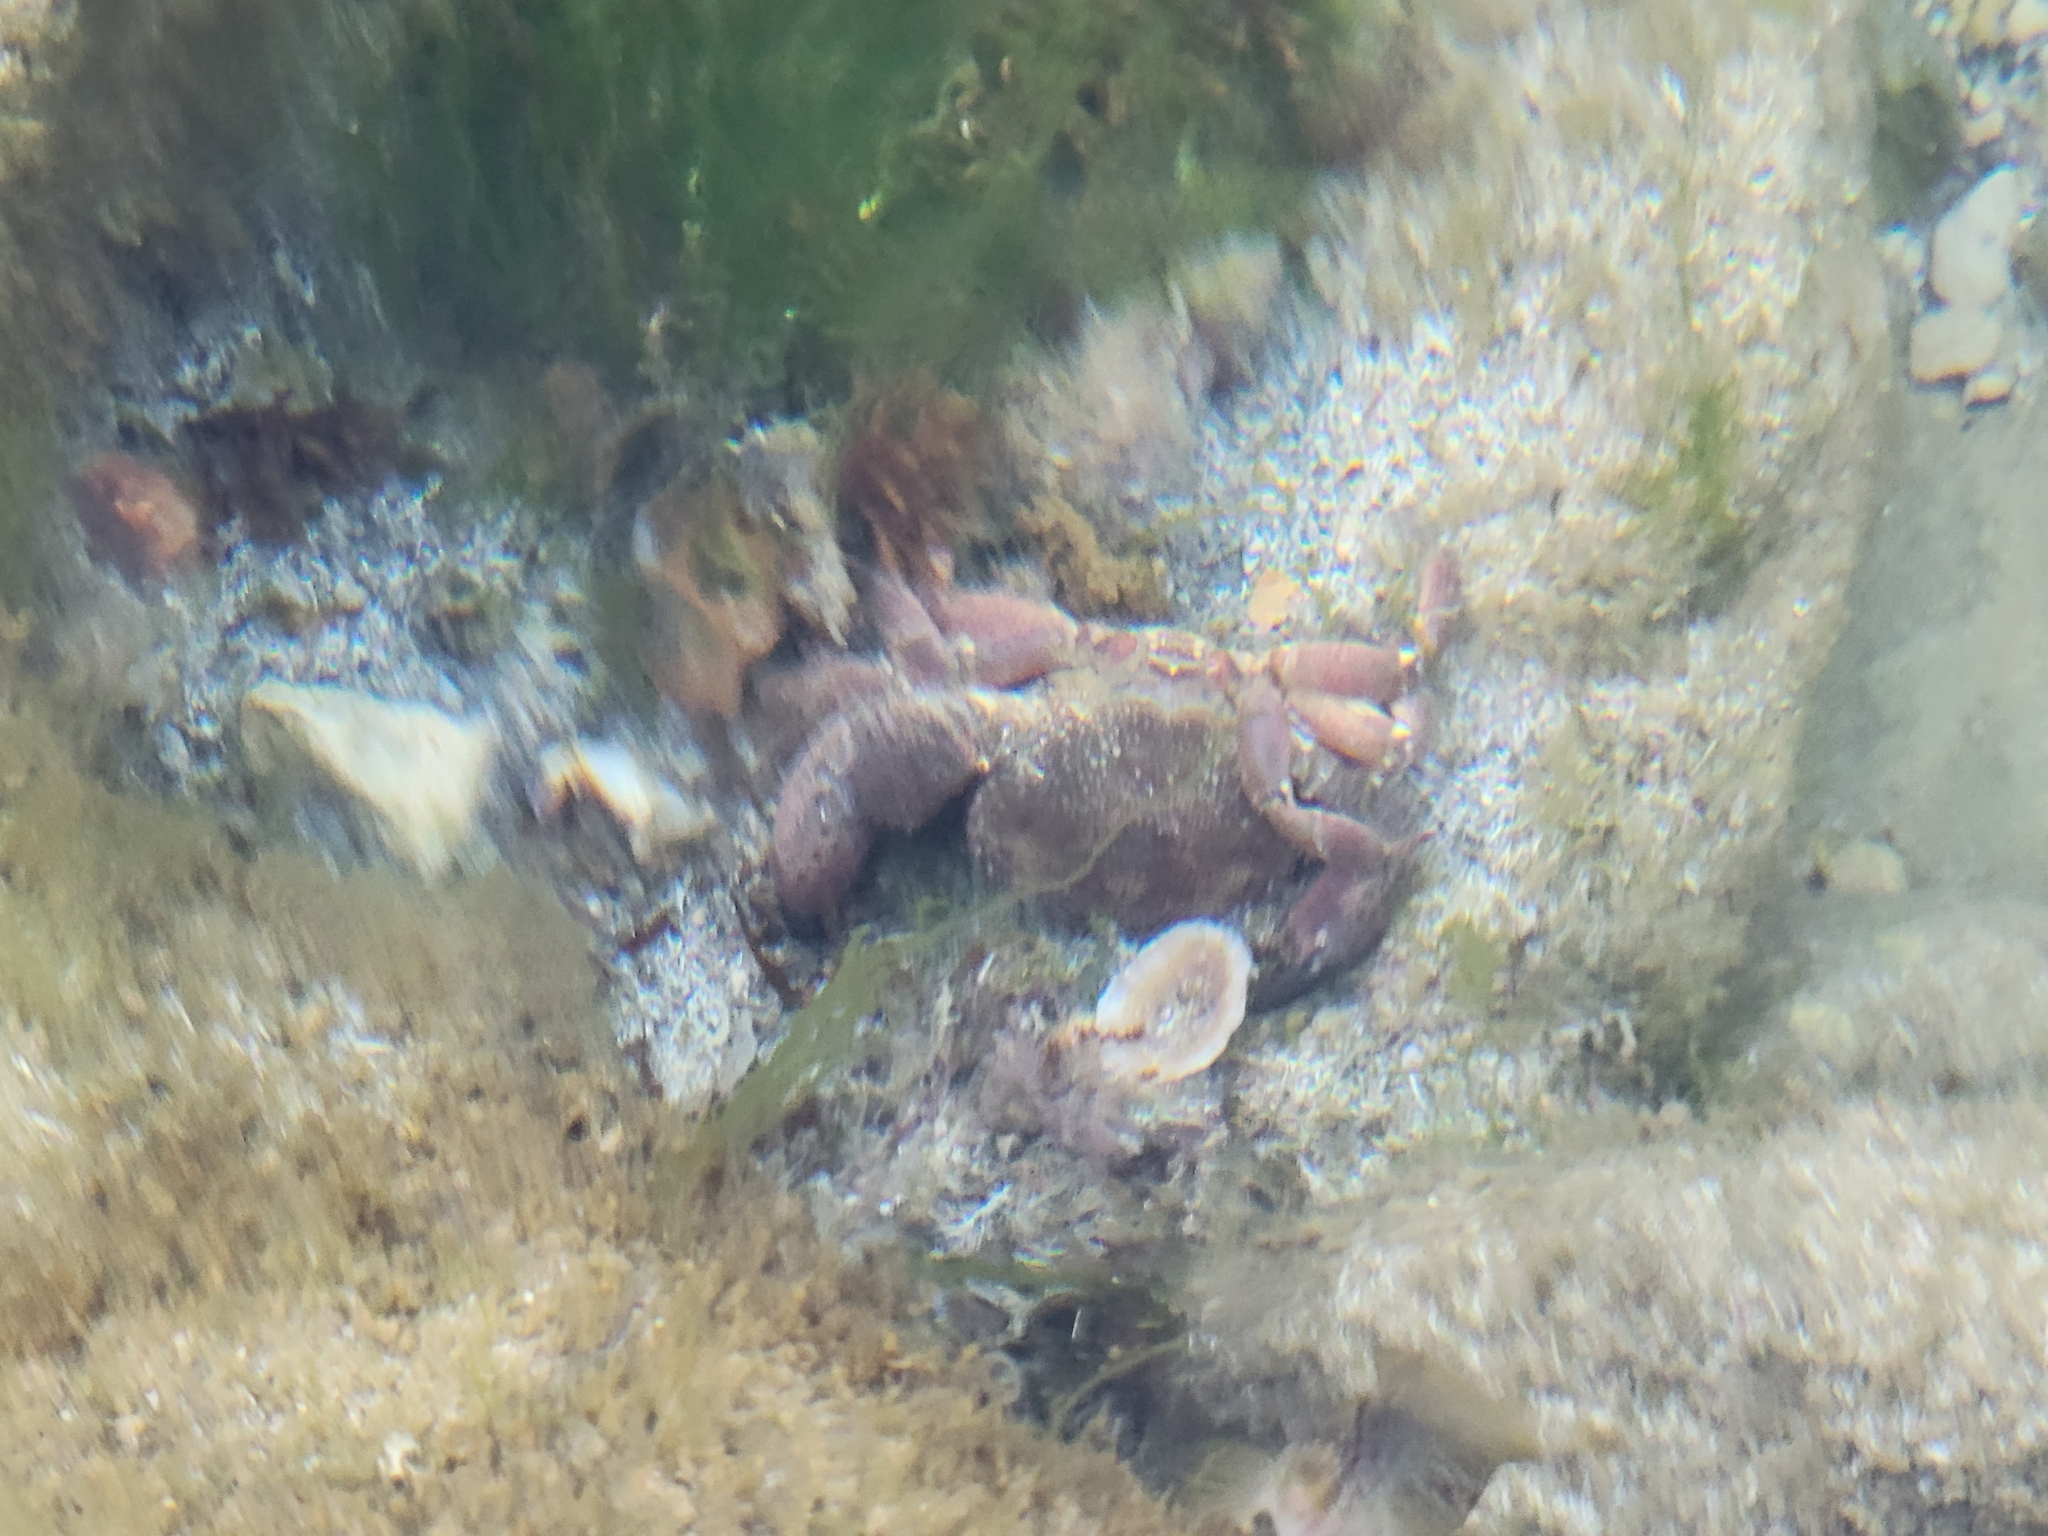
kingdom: Animalia
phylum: Arthropoda
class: Malacostraca
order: Decapoda
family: Eriphiidae
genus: Eriphia
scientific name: Eriphia verrucosa
